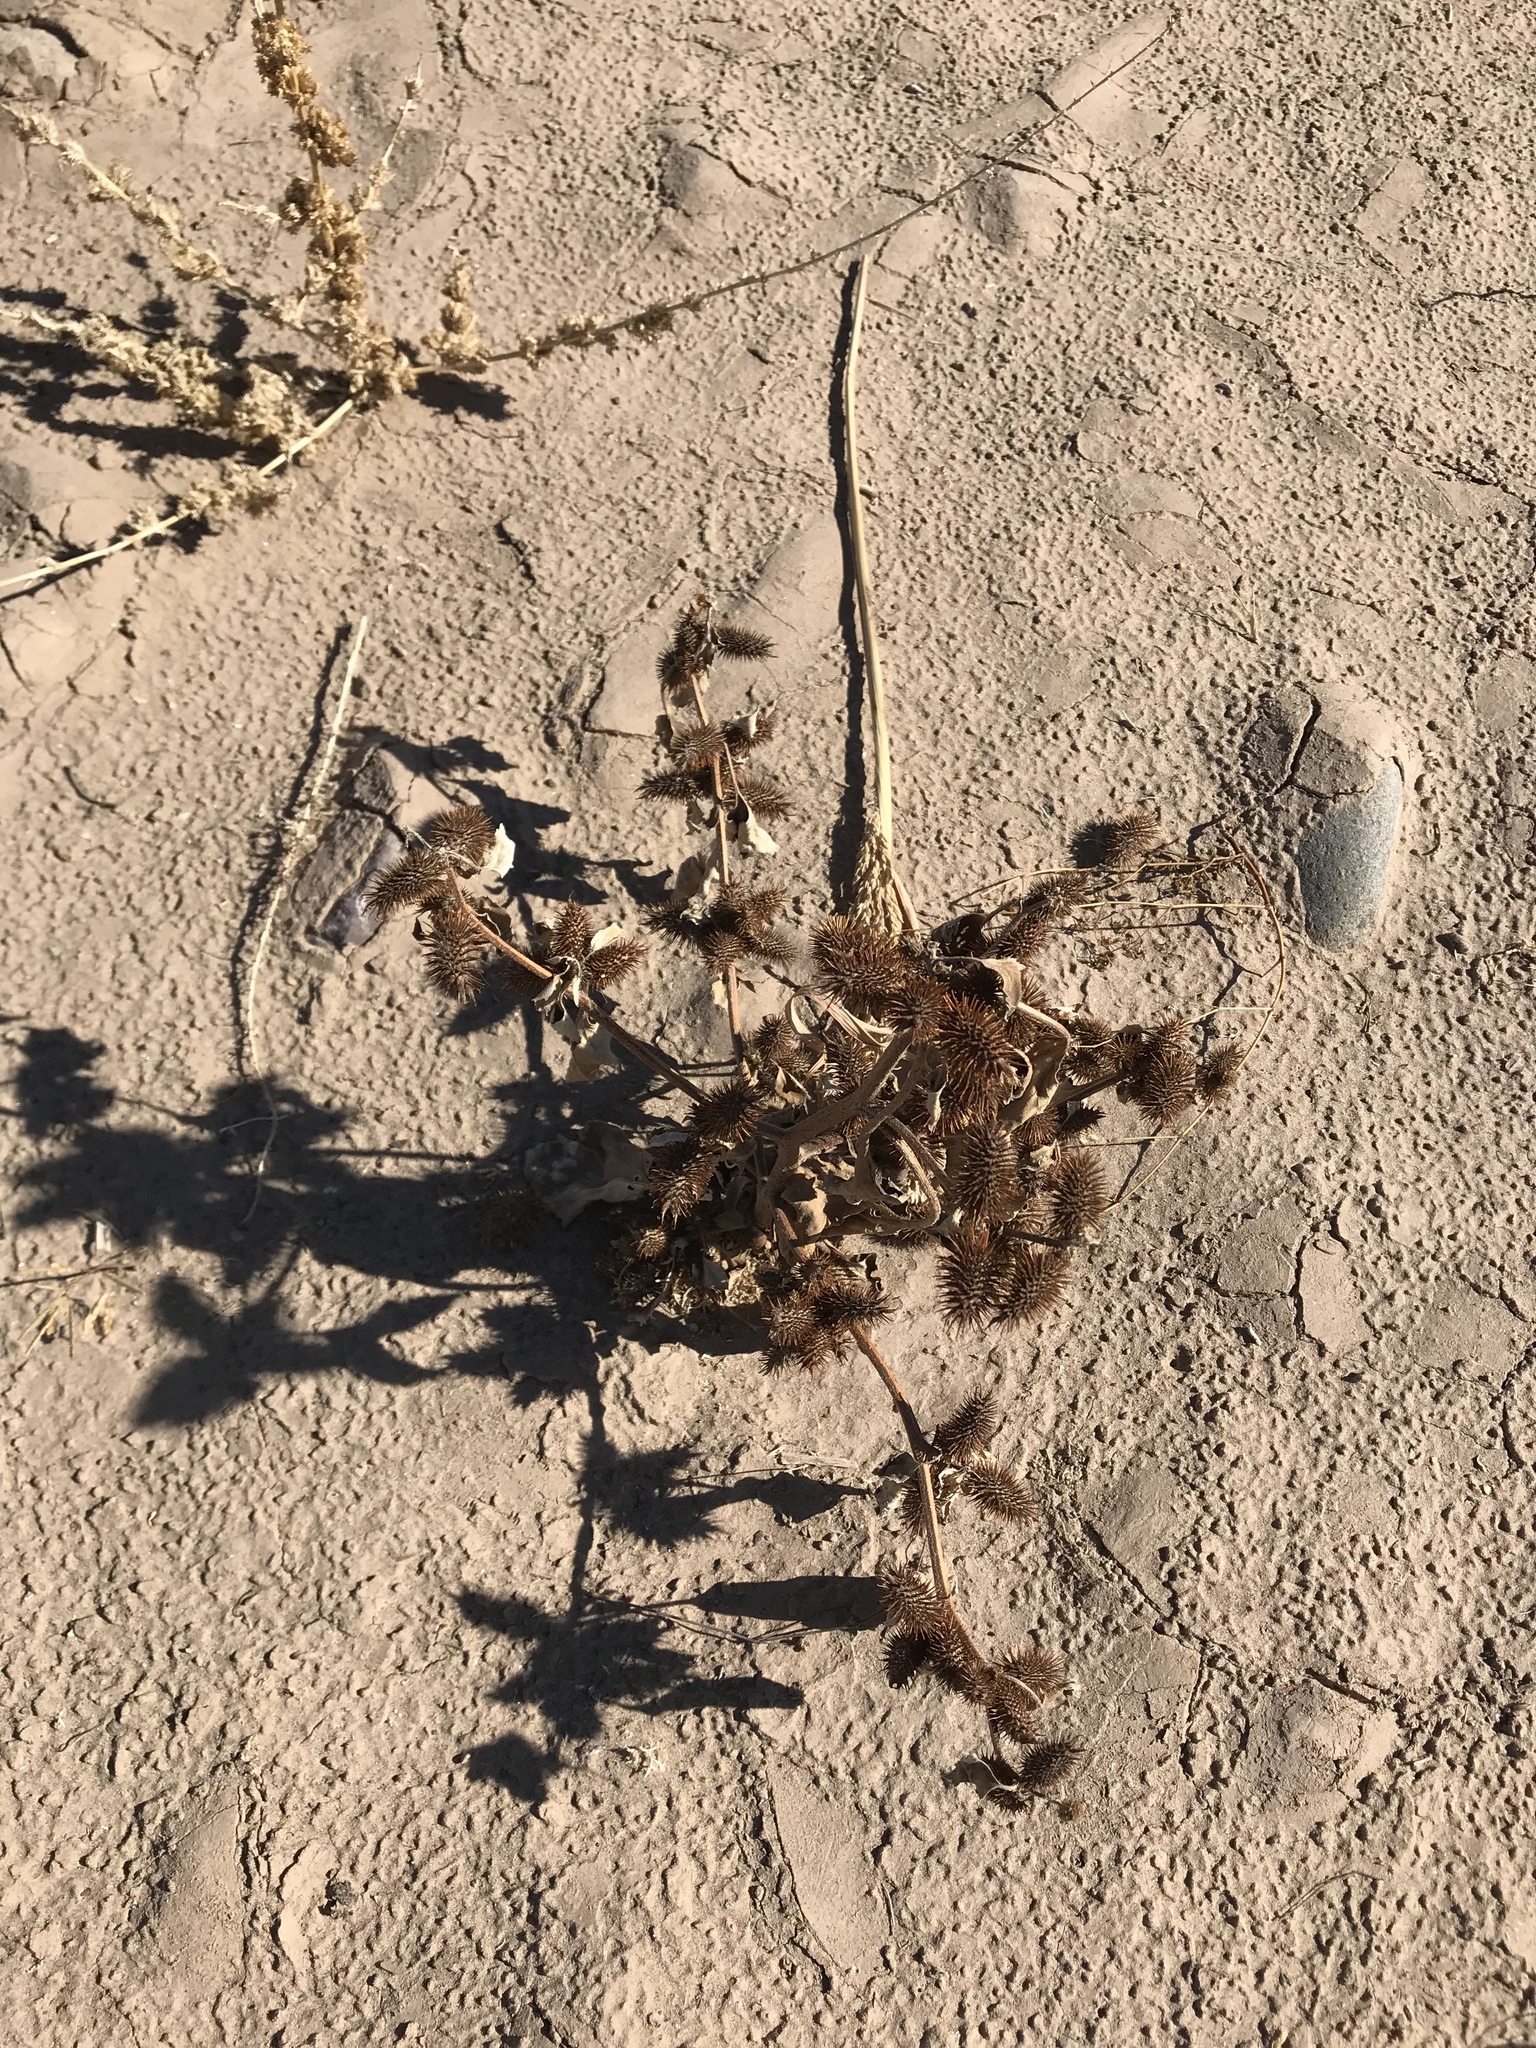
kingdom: Plantae
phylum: Tracheophyta
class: Magnoliopsida
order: Asterales
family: Asteraceae
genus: Xanthium
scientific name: Xanthium strumarium
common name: Rough cocklebur
